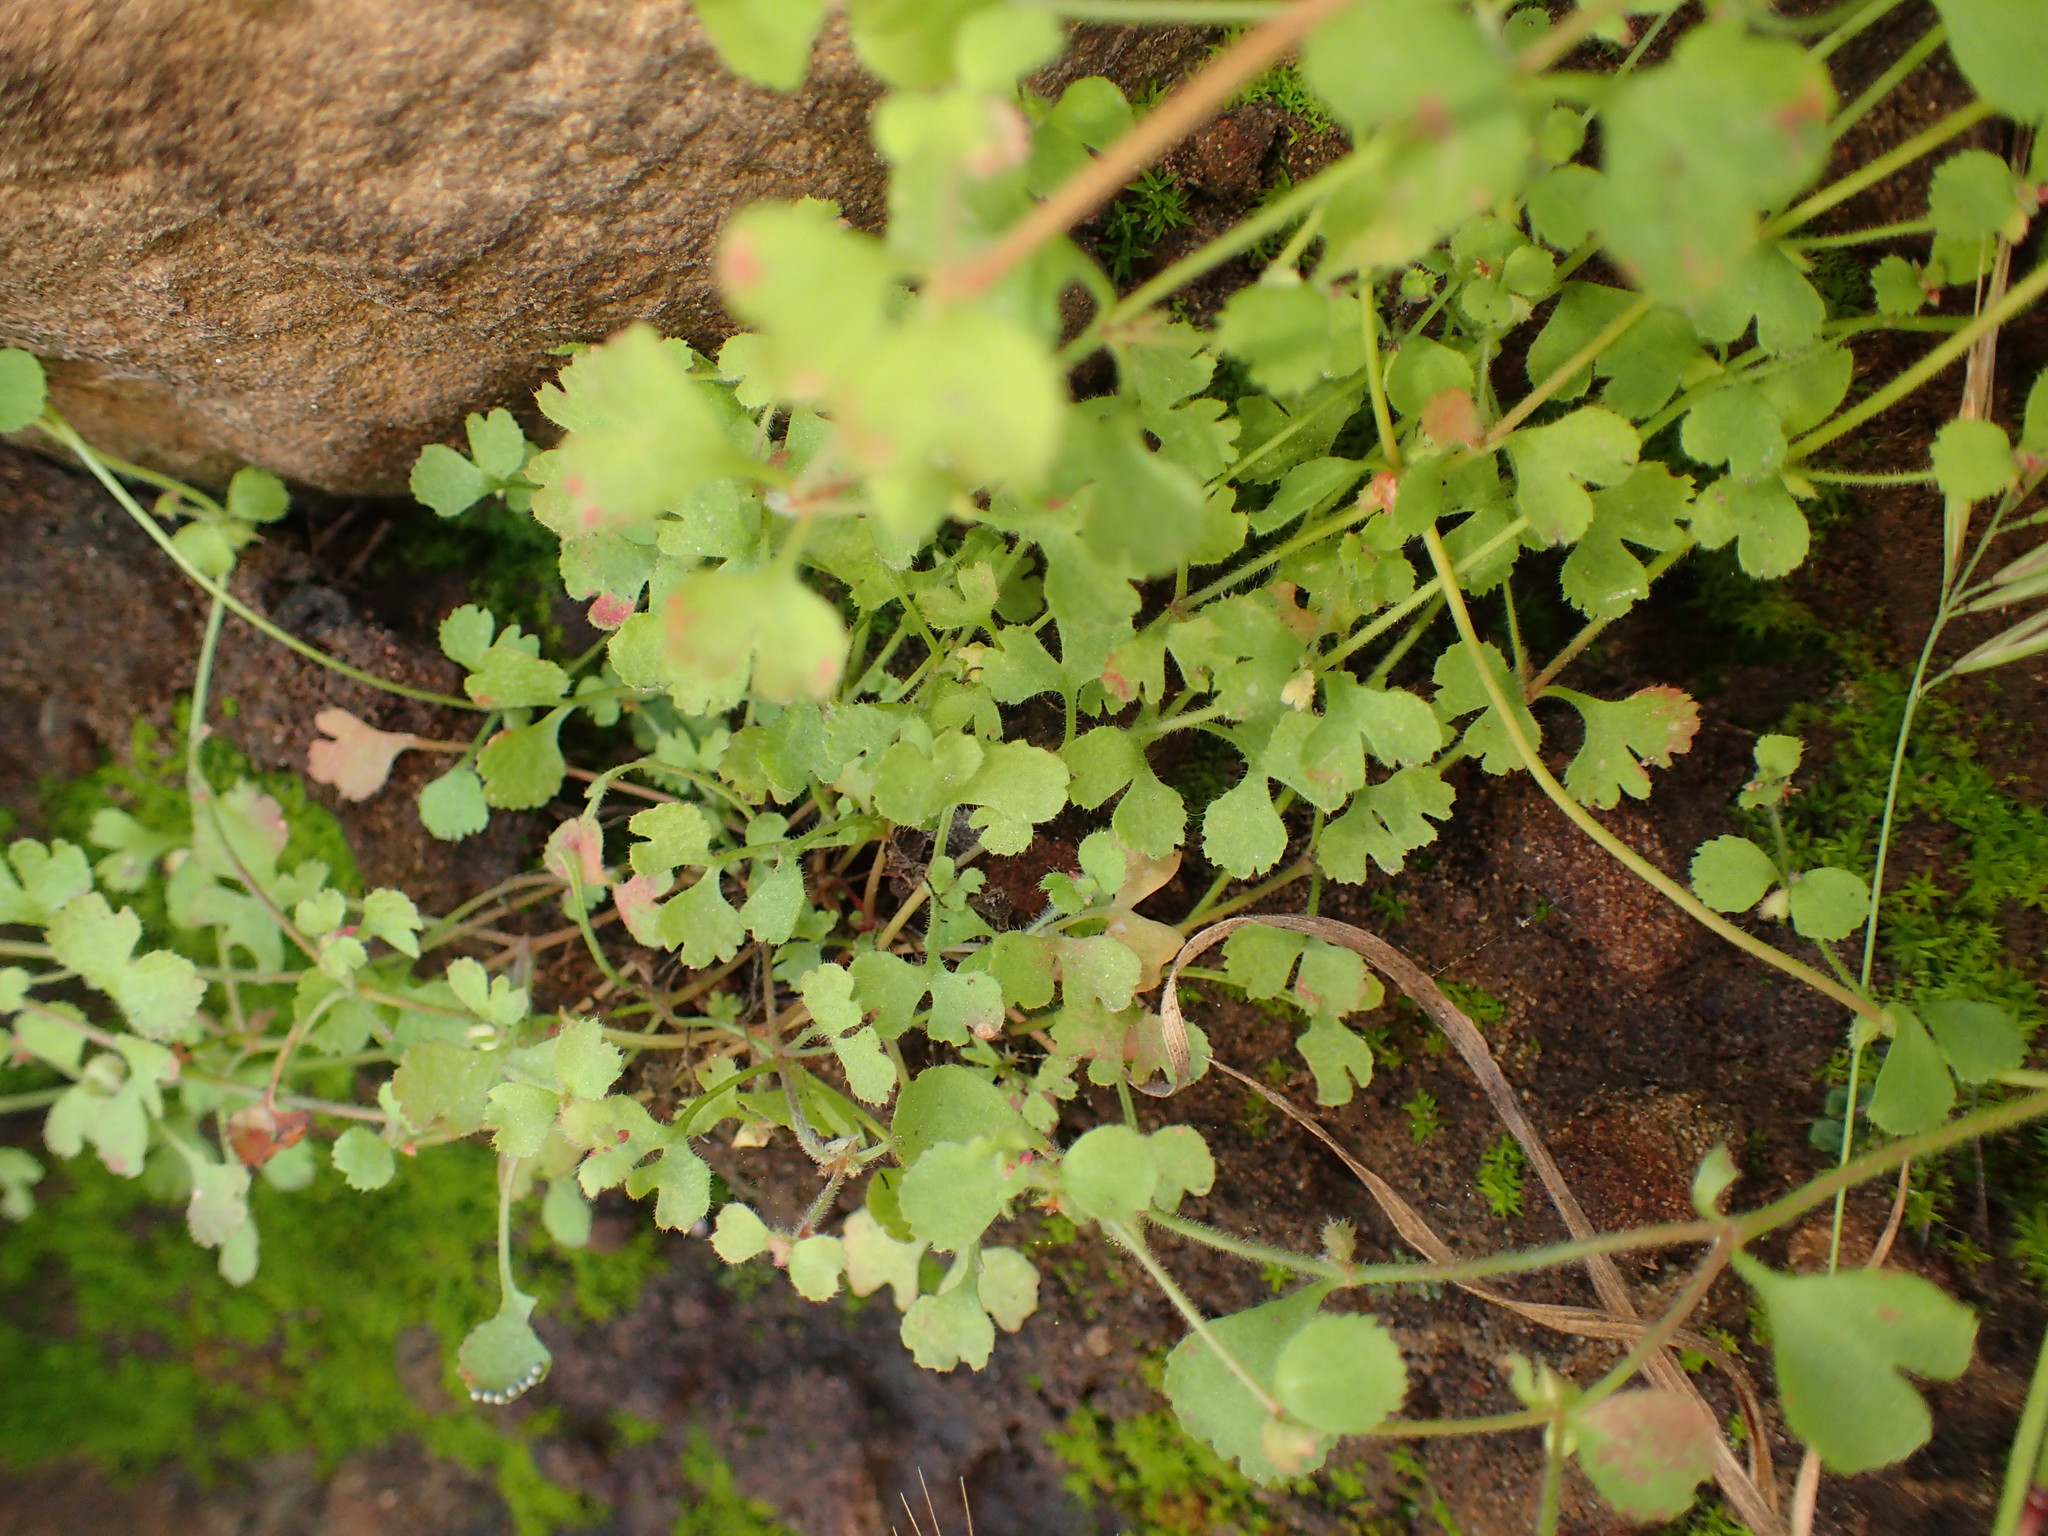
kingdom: Plantae
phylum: Tracheophyta
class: Magnoliopsida
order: Caryophyllales
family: Polygonaceae
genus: Pterostegia
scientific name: Pterostegia drymarioides
